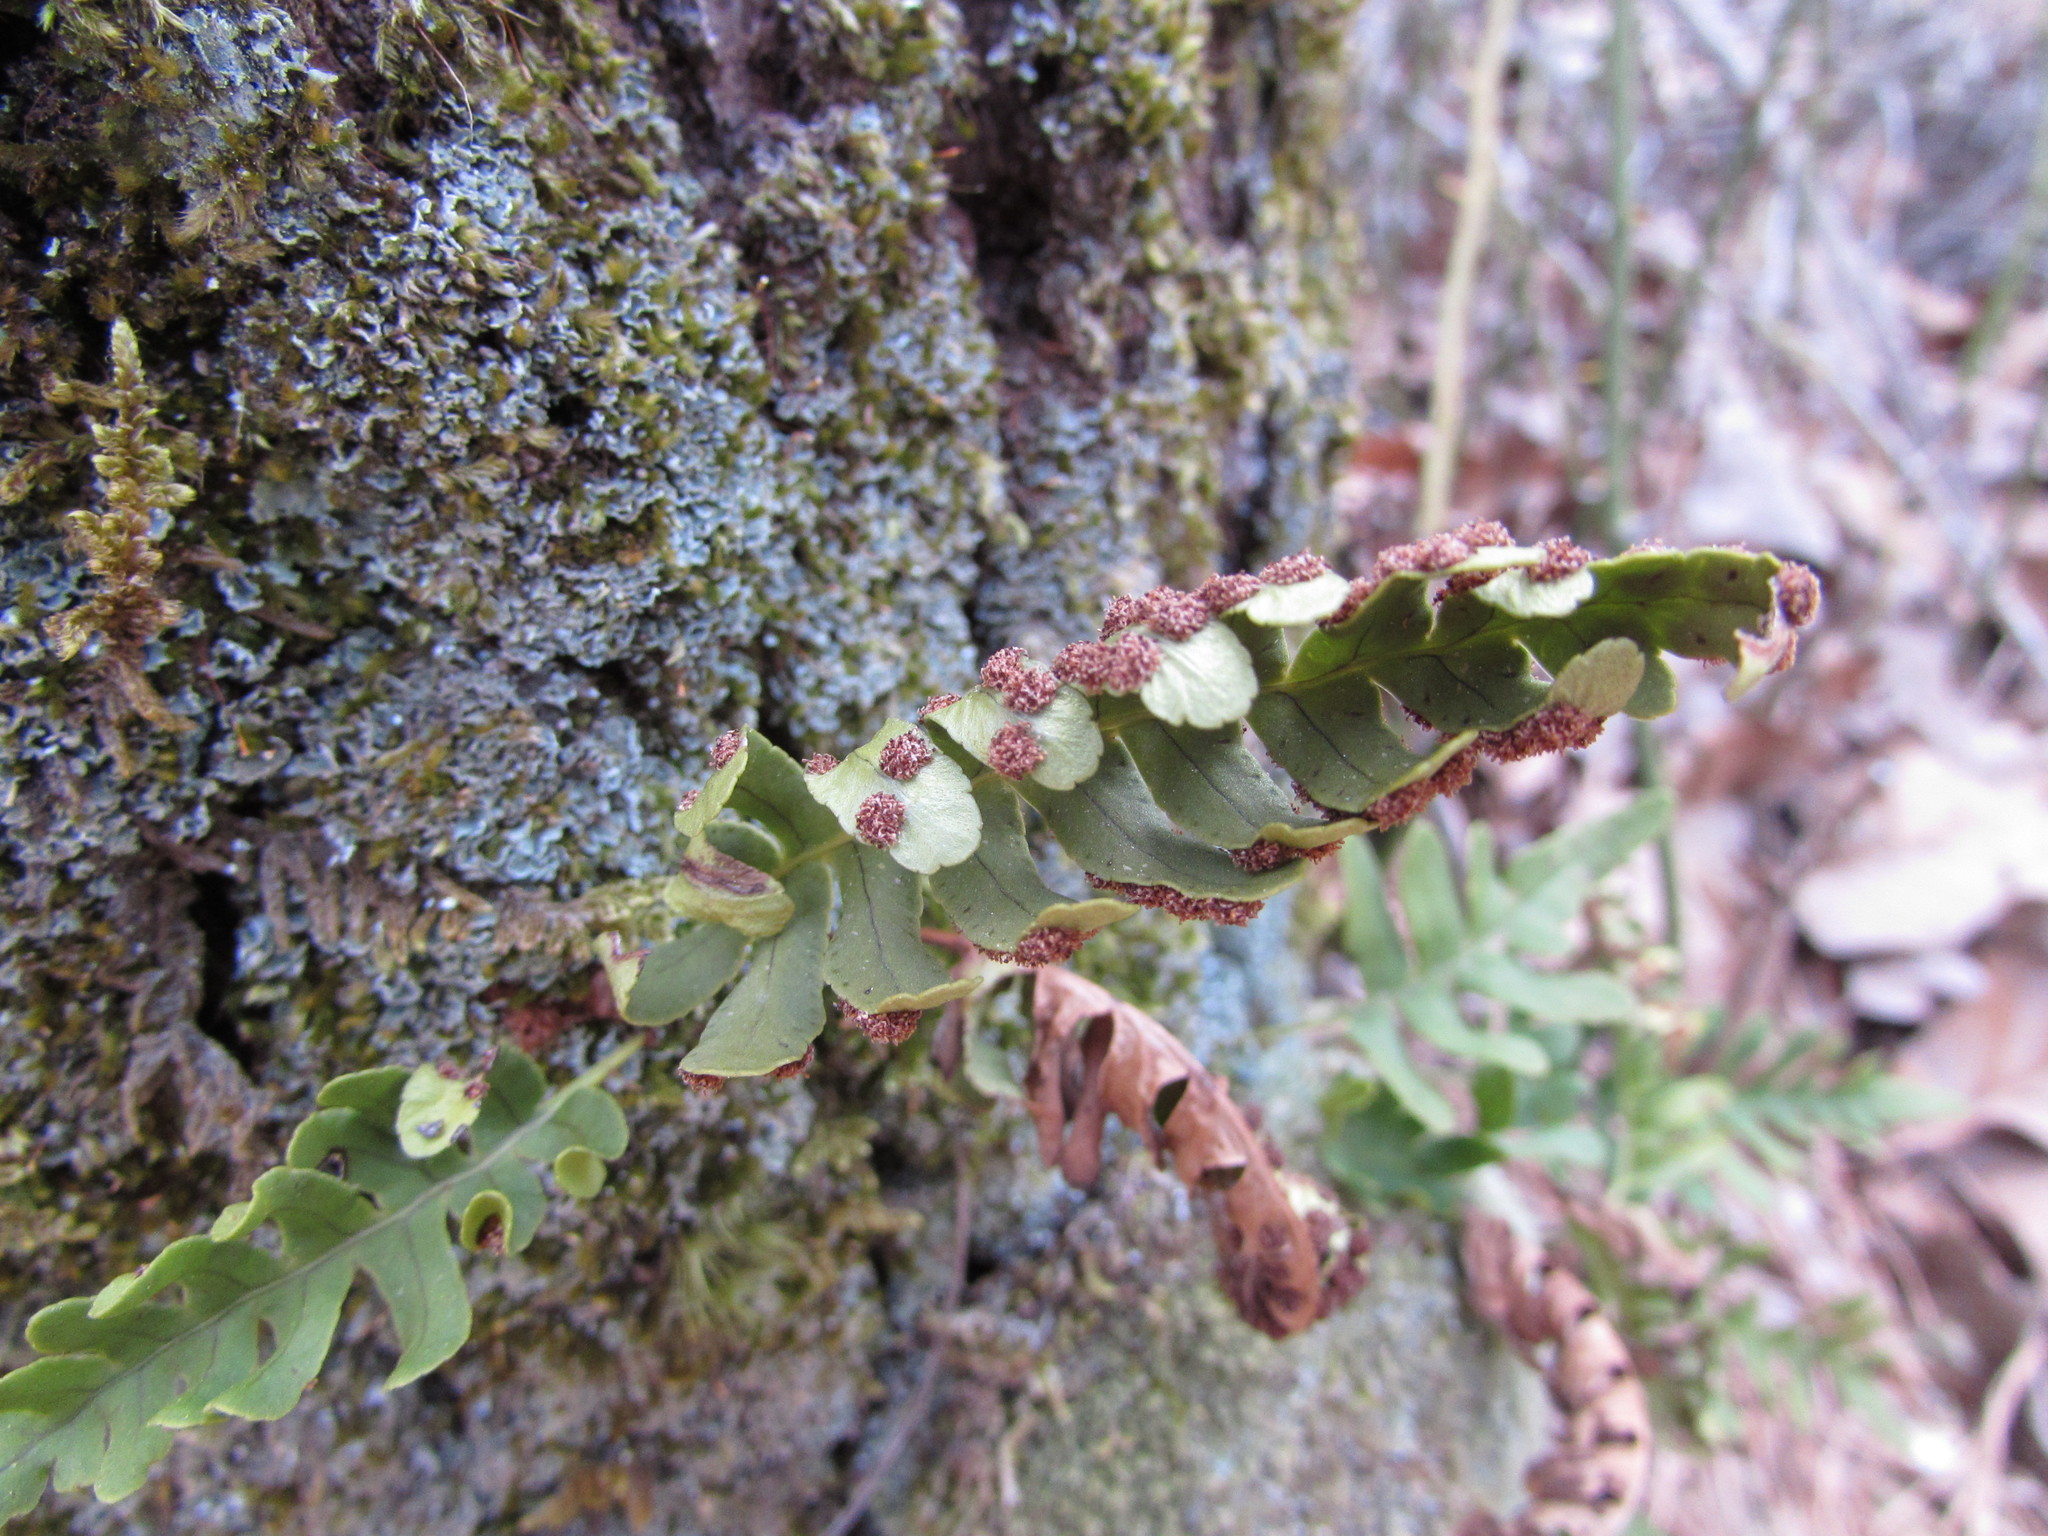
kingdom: Plantae
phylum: Tracheophyta
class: Polypodiopsida
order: Polypodiales
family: Polypodiaceae
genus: Polypodium
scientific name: Polypodium virginianum
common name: American wall fern
